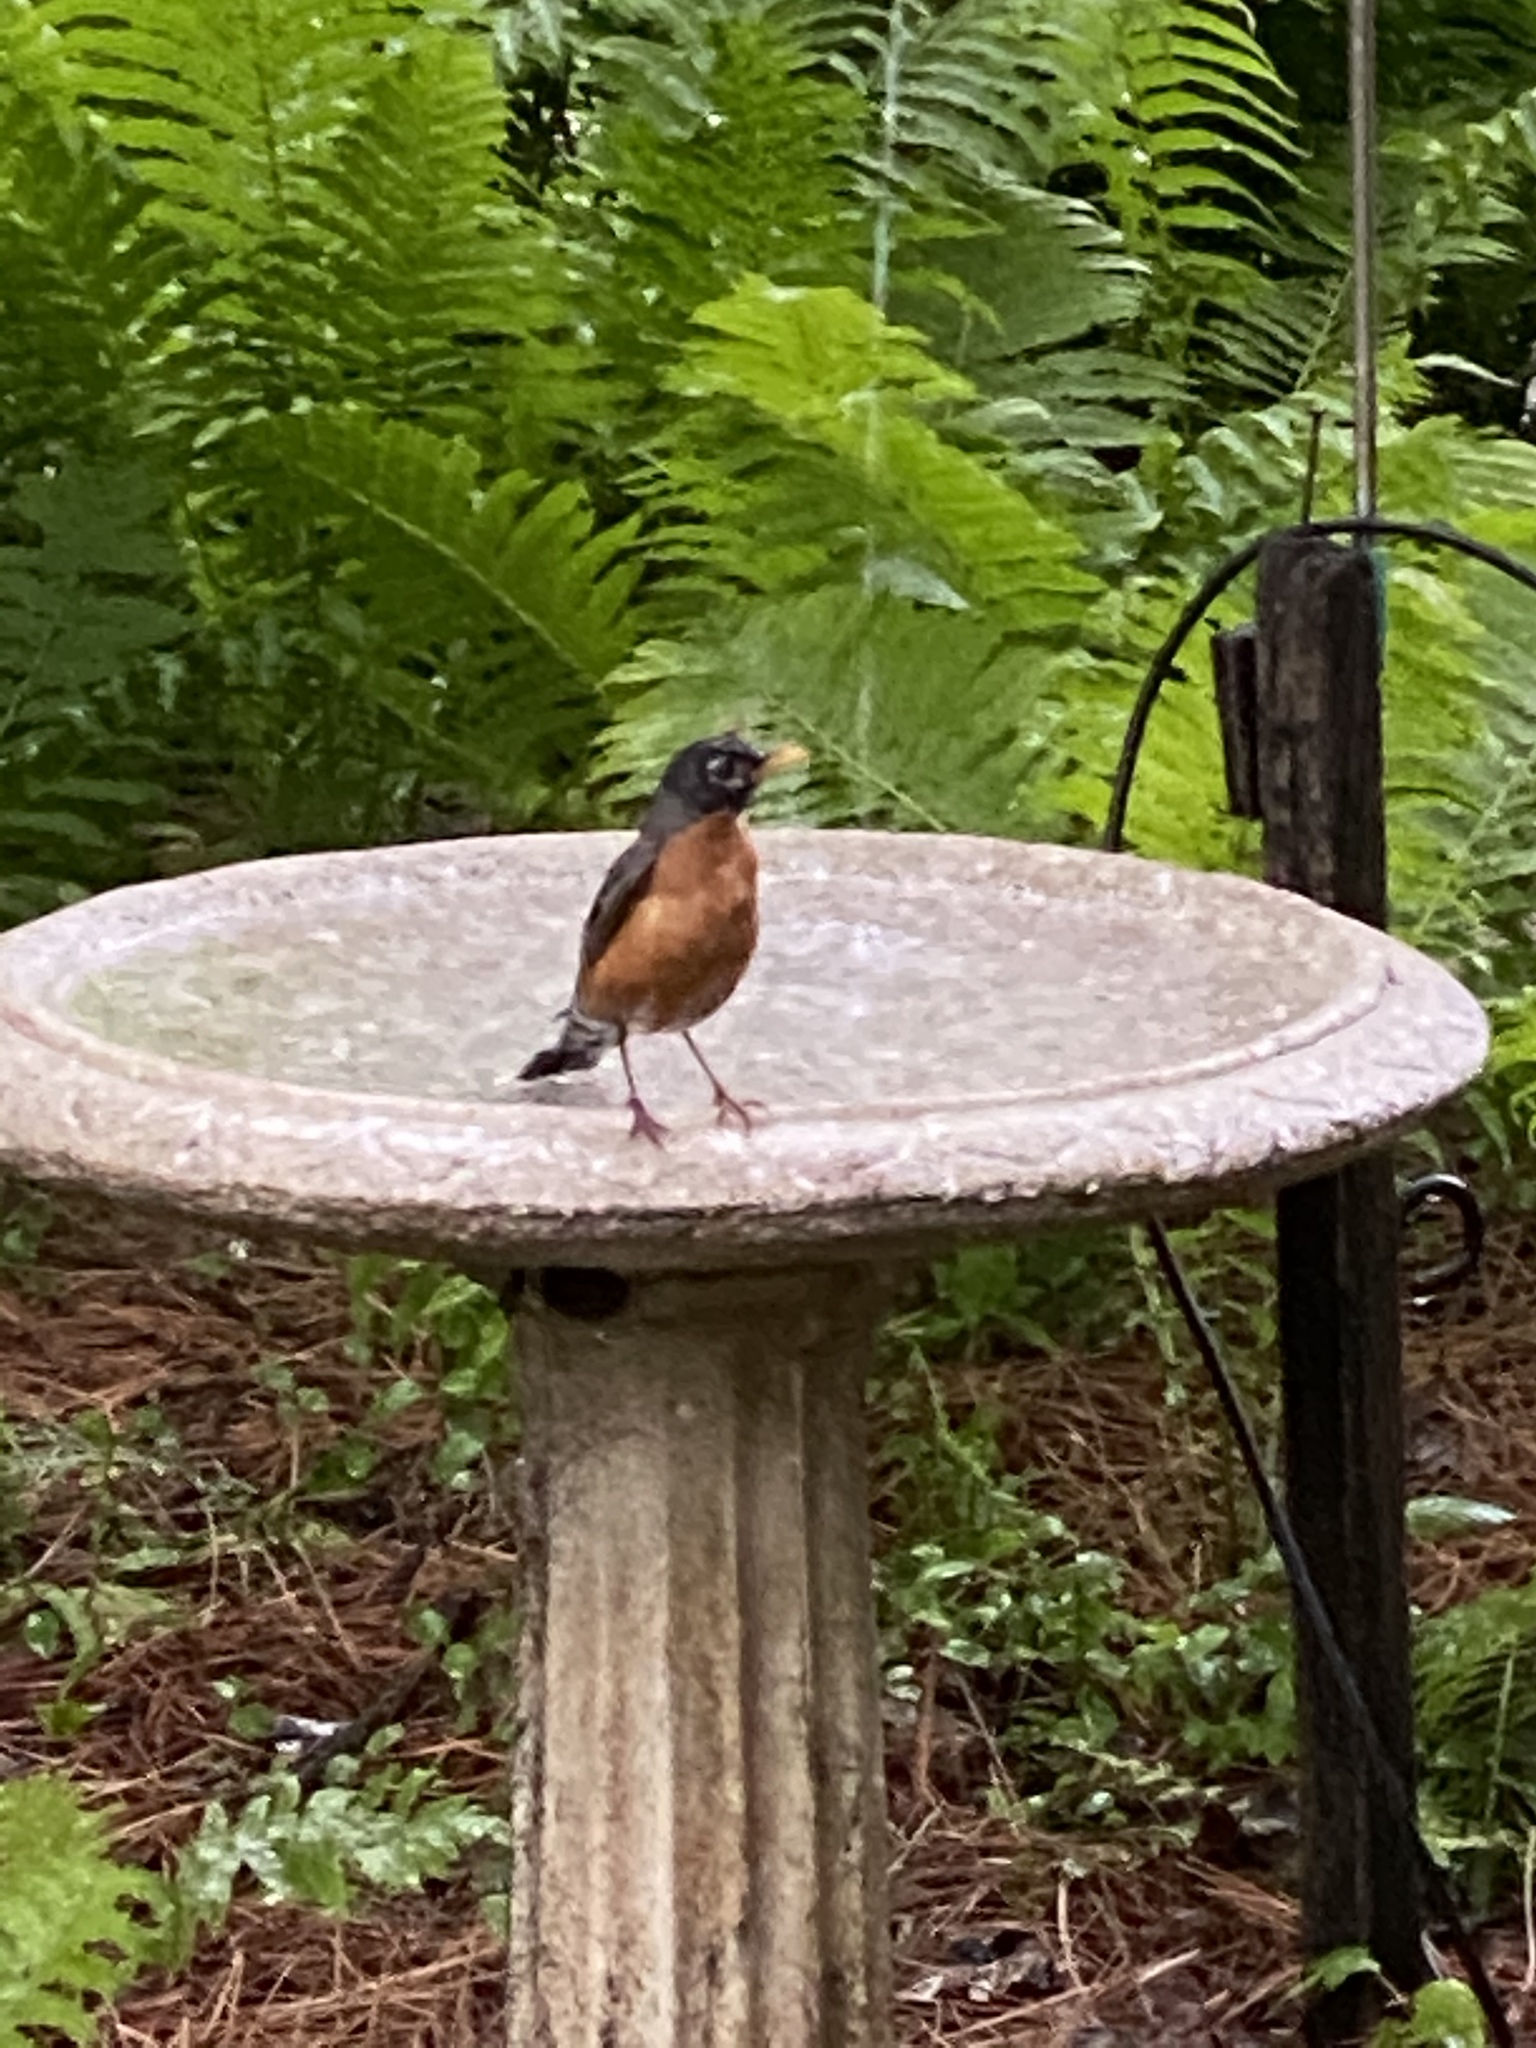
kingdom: Animalia
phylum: Chordata
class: Aves
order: Passeriformes
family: Turdidae
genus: Turdus
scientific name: Turdus migratorius
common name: American robin
